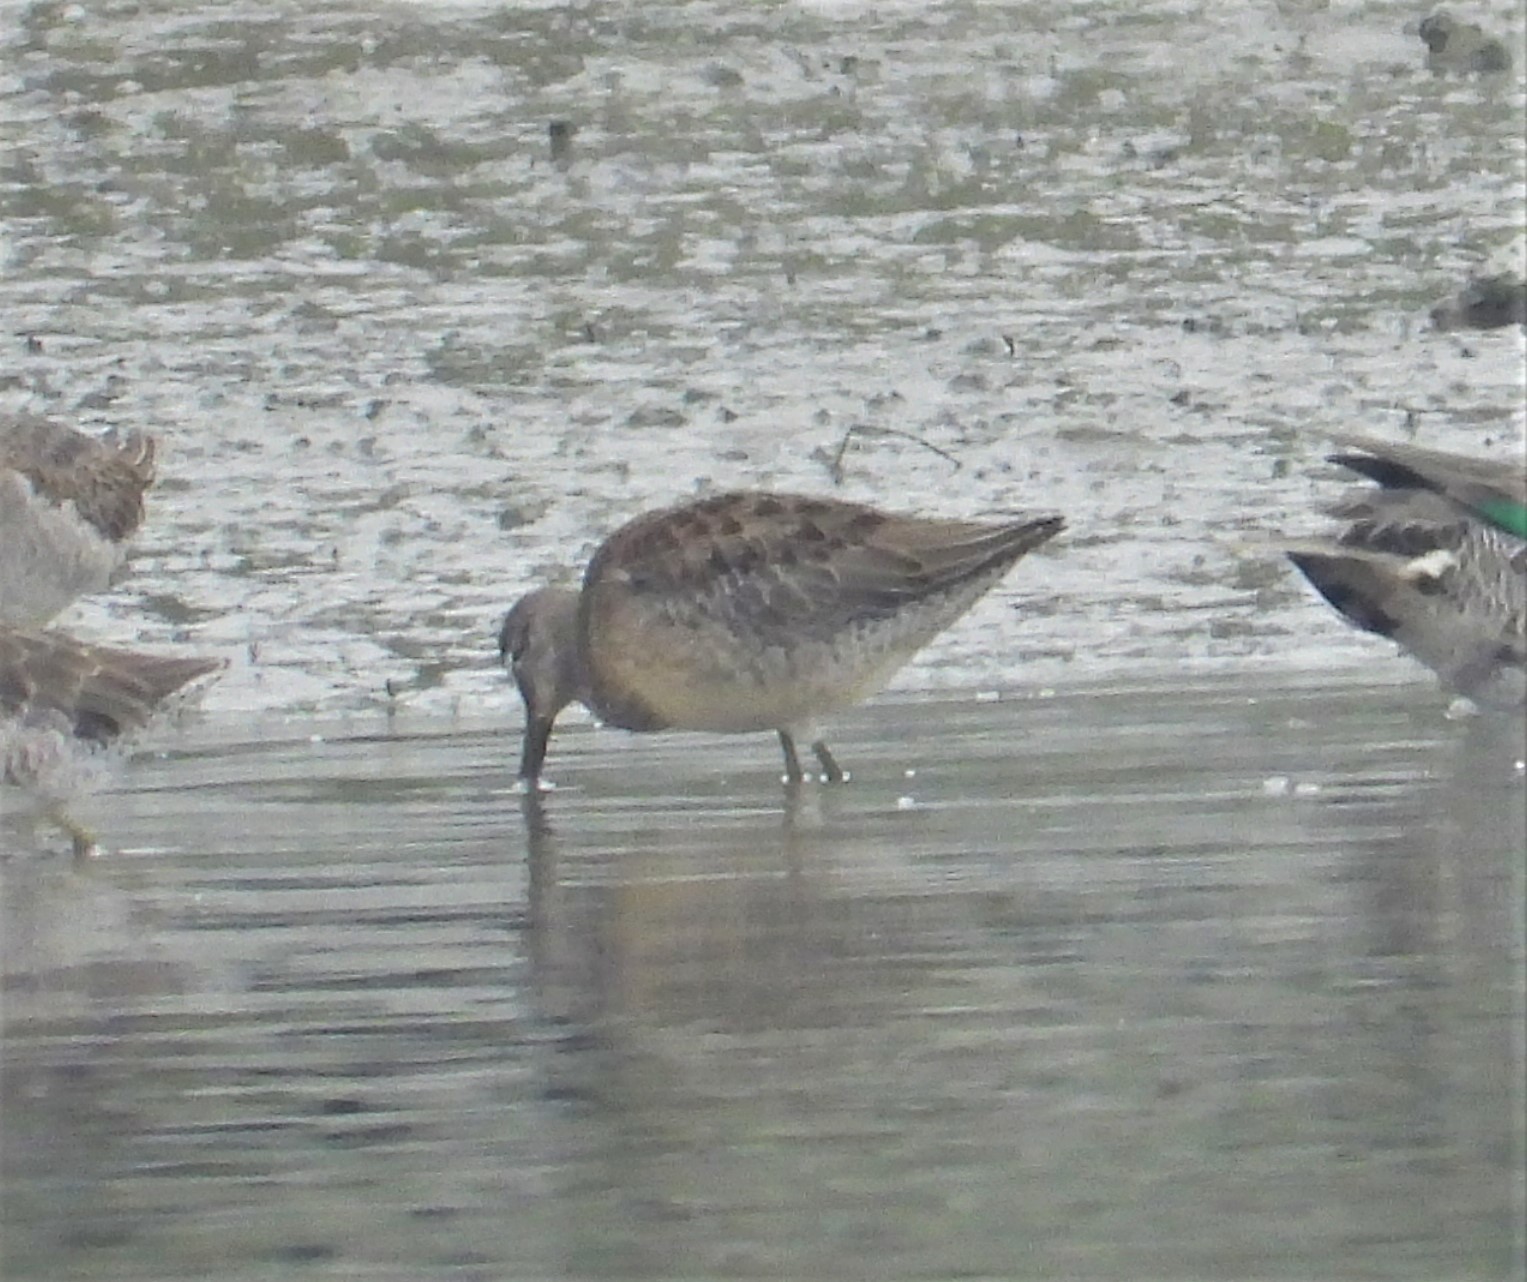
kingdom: Animalia
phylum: Chordata
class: Aves
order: Charadriiformes
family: Scolopacidae
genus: Limnodromus
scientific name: Limnodromus scolopaceus
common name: Long-billed dowitcher
